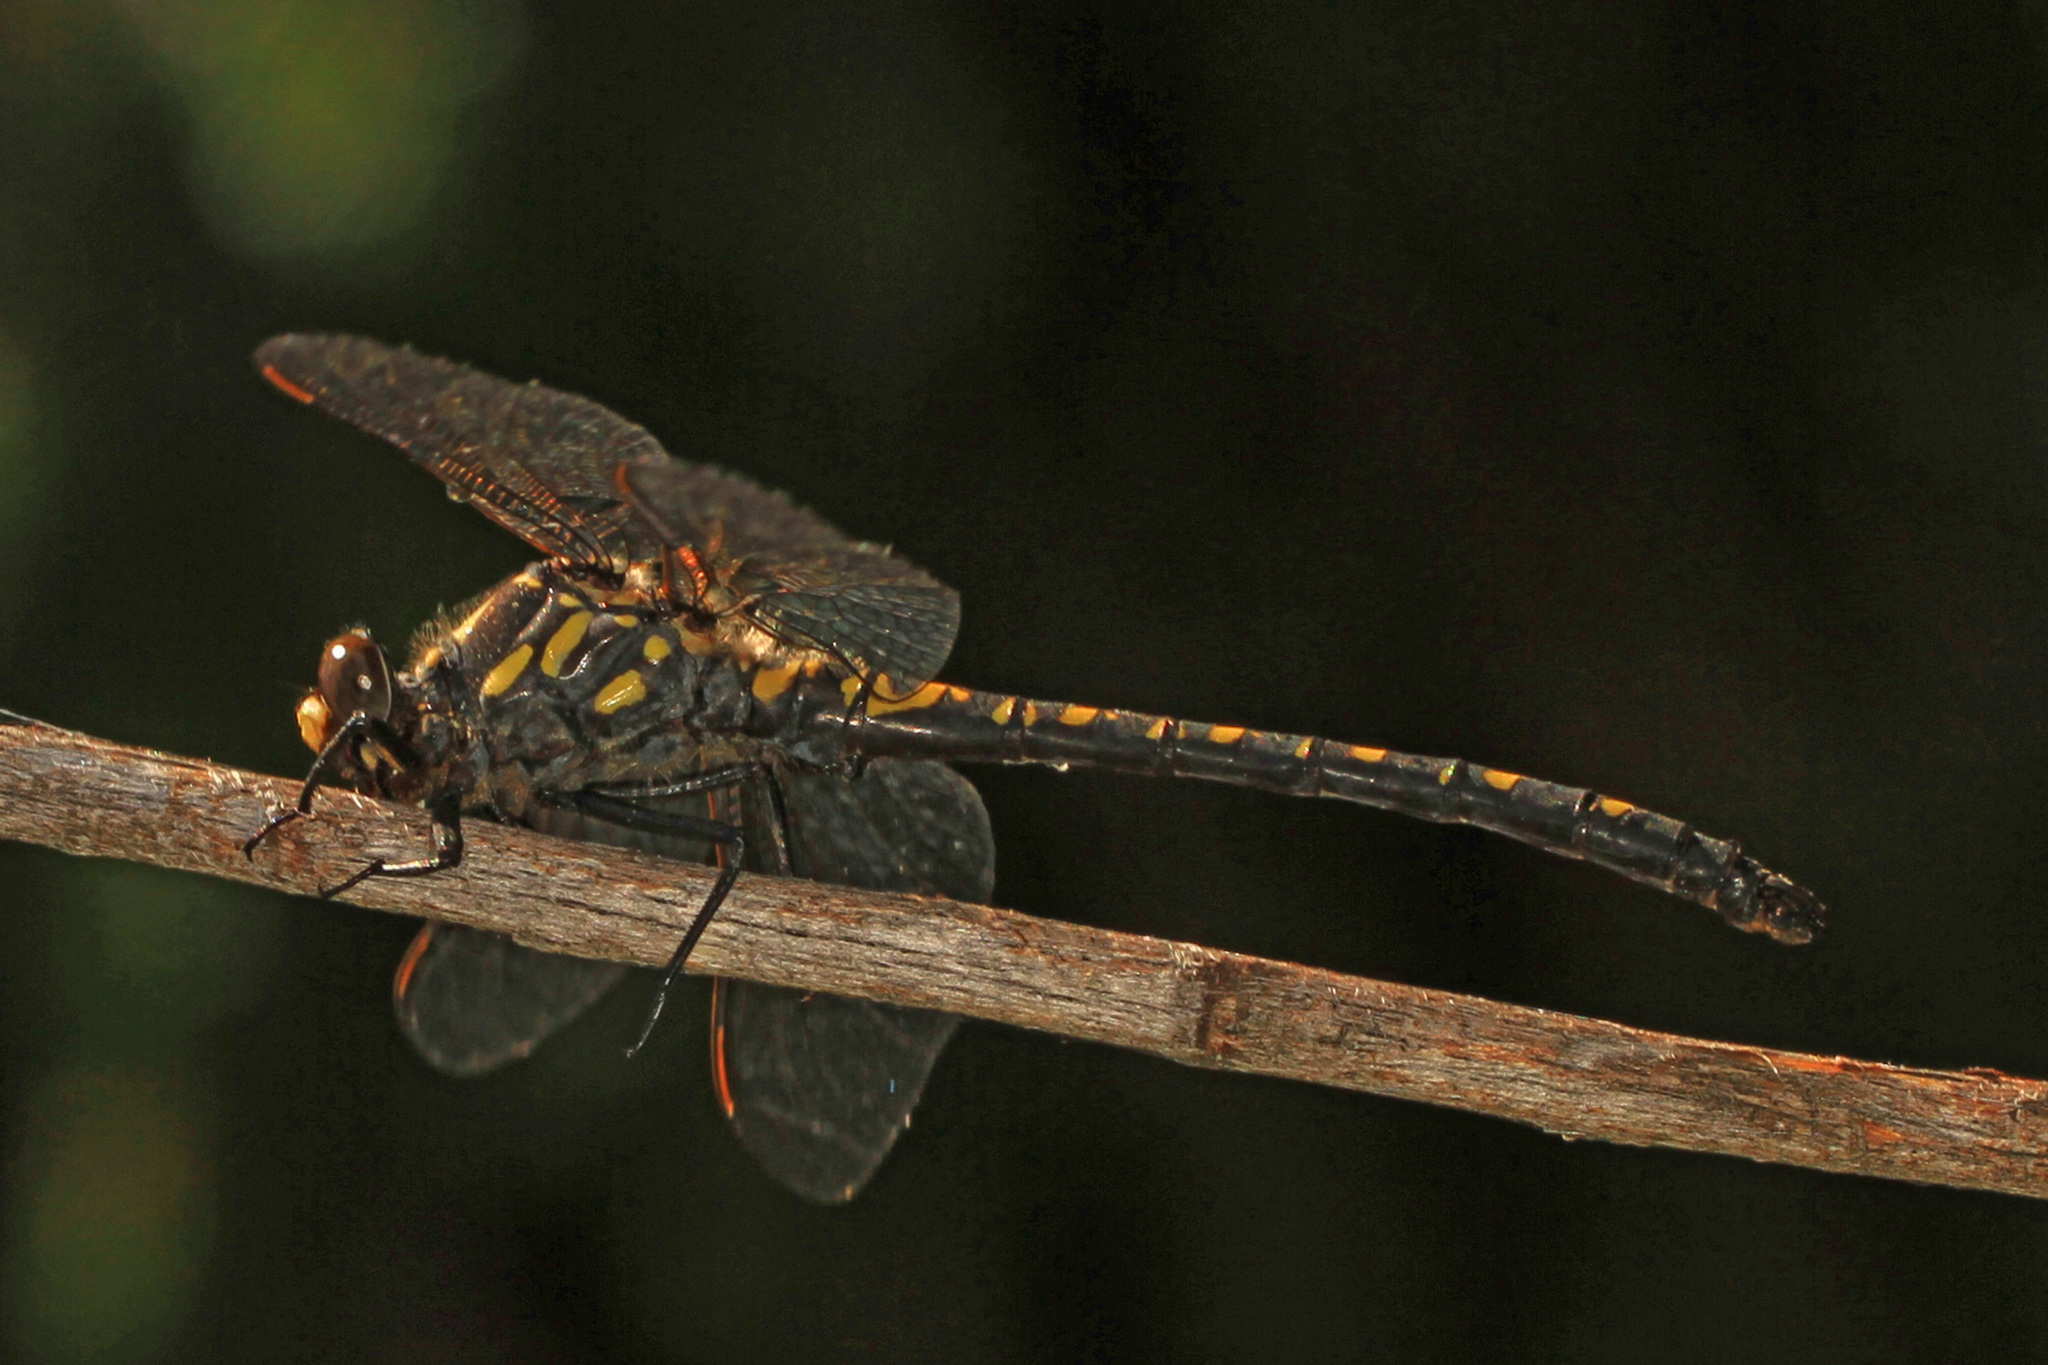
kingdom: Animalia
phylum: Arthropoda
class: Insecta
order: Odonata
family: Petaluridae
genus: Tanypteryx
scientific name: Tanypteryx hageni
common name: Black petaltail
